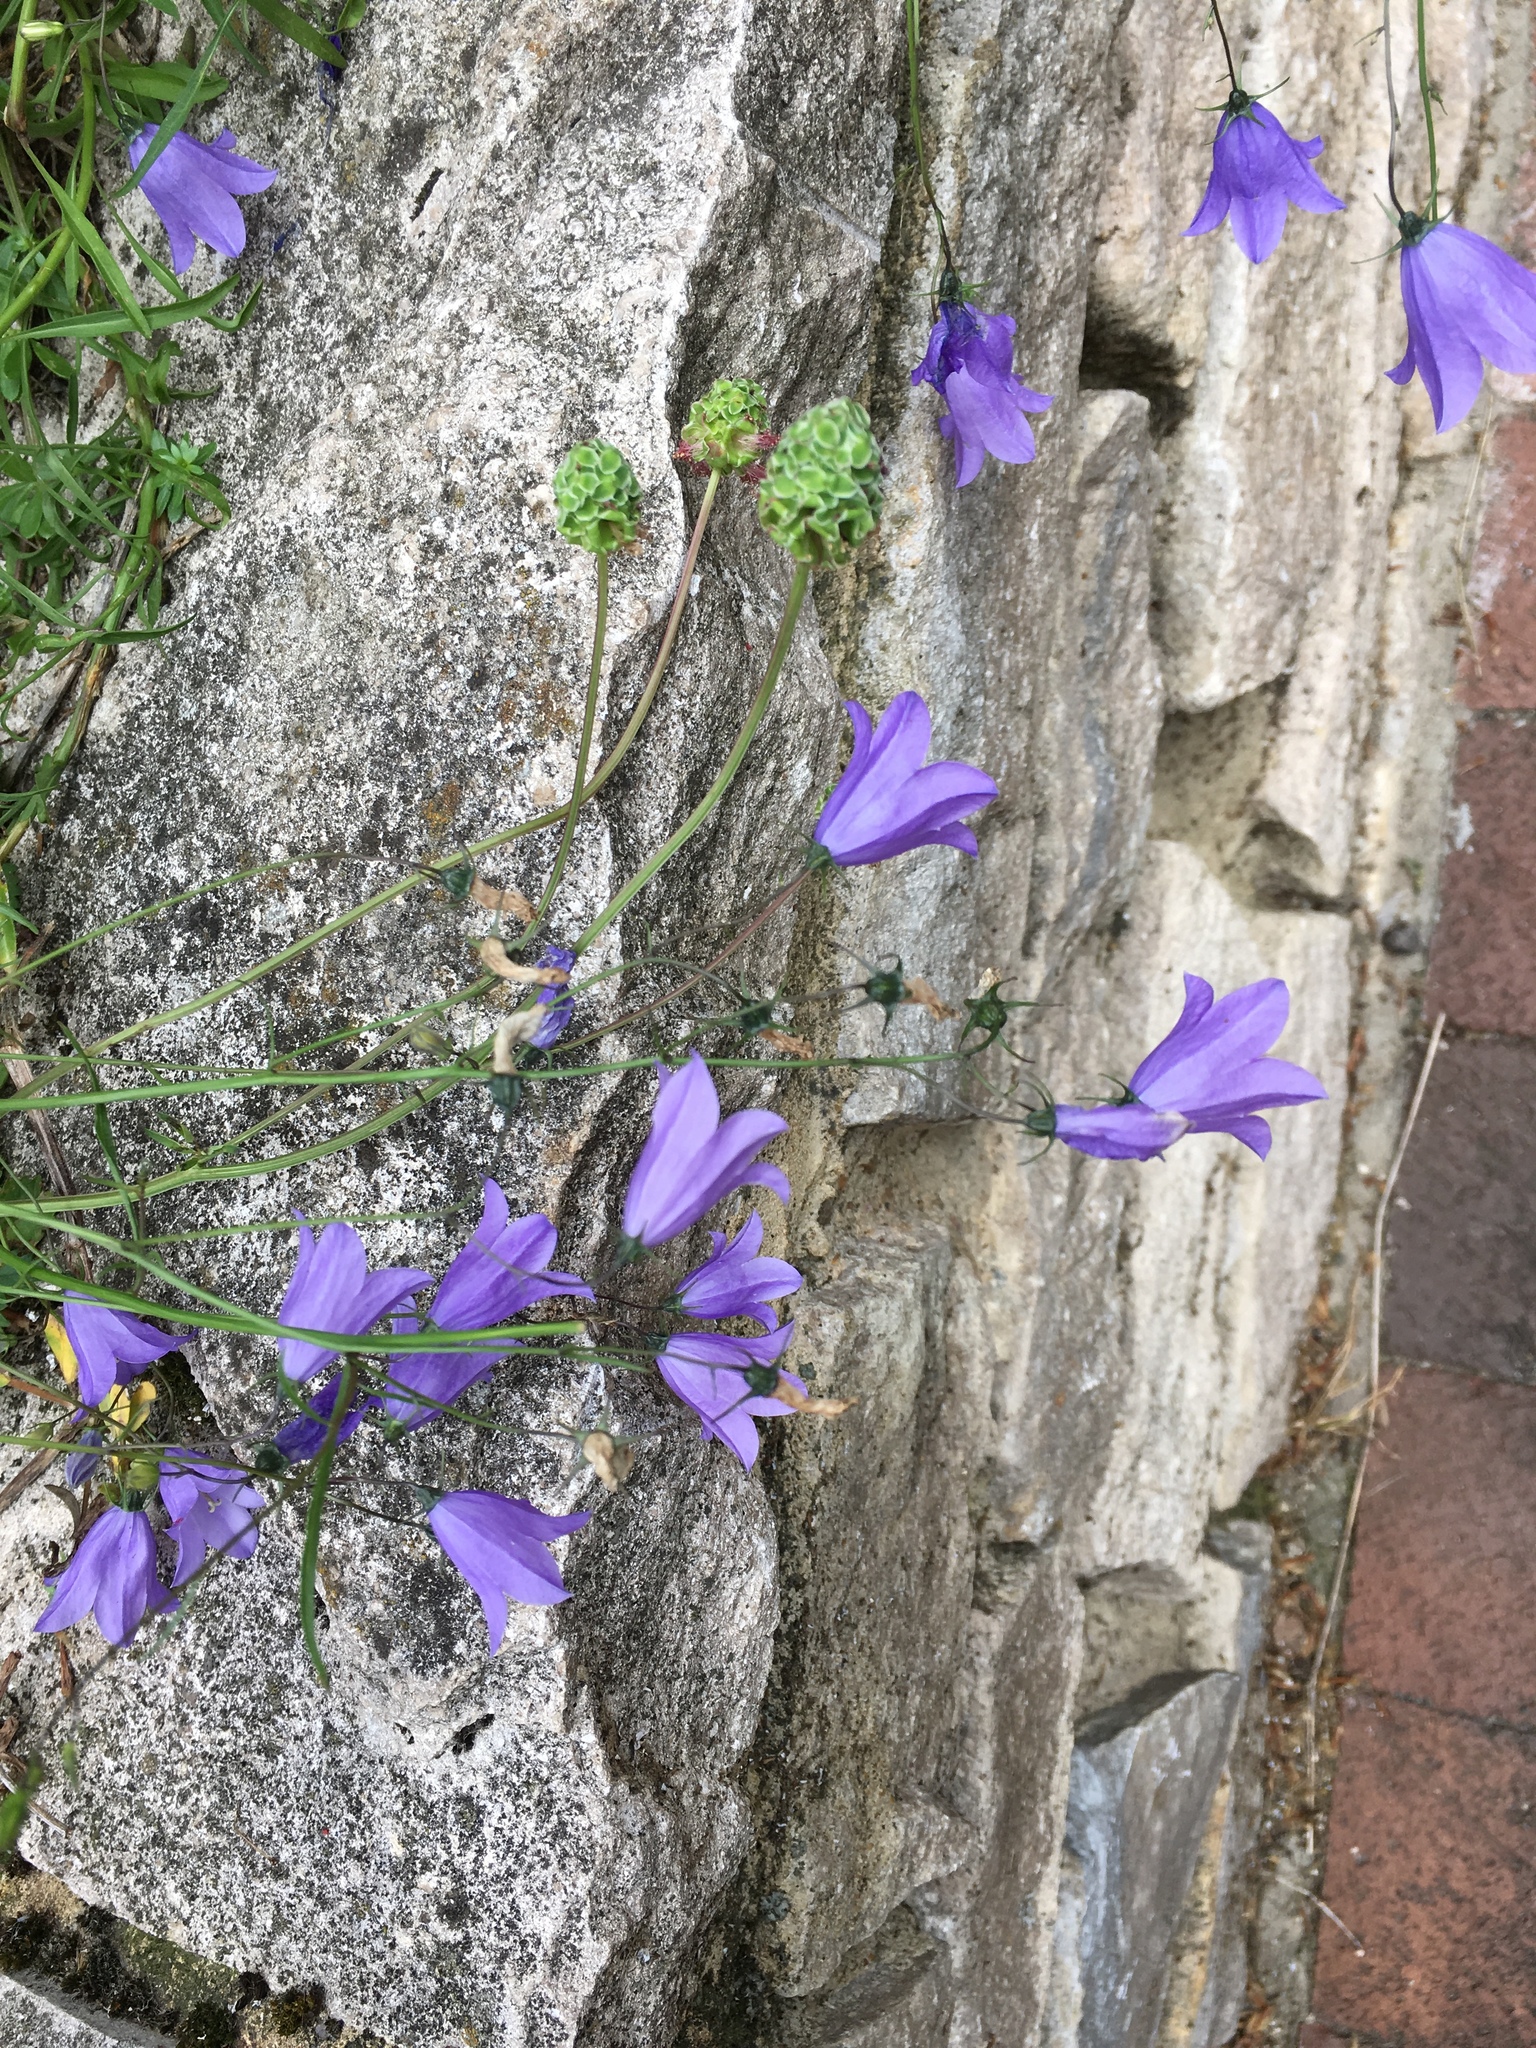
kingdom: Plantae
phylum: Tracheophyta
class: Magnoliopsida
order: Asterales
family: Campanulaceae
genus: Campanula
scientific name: Campanula rotundifolia
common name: Harebell
